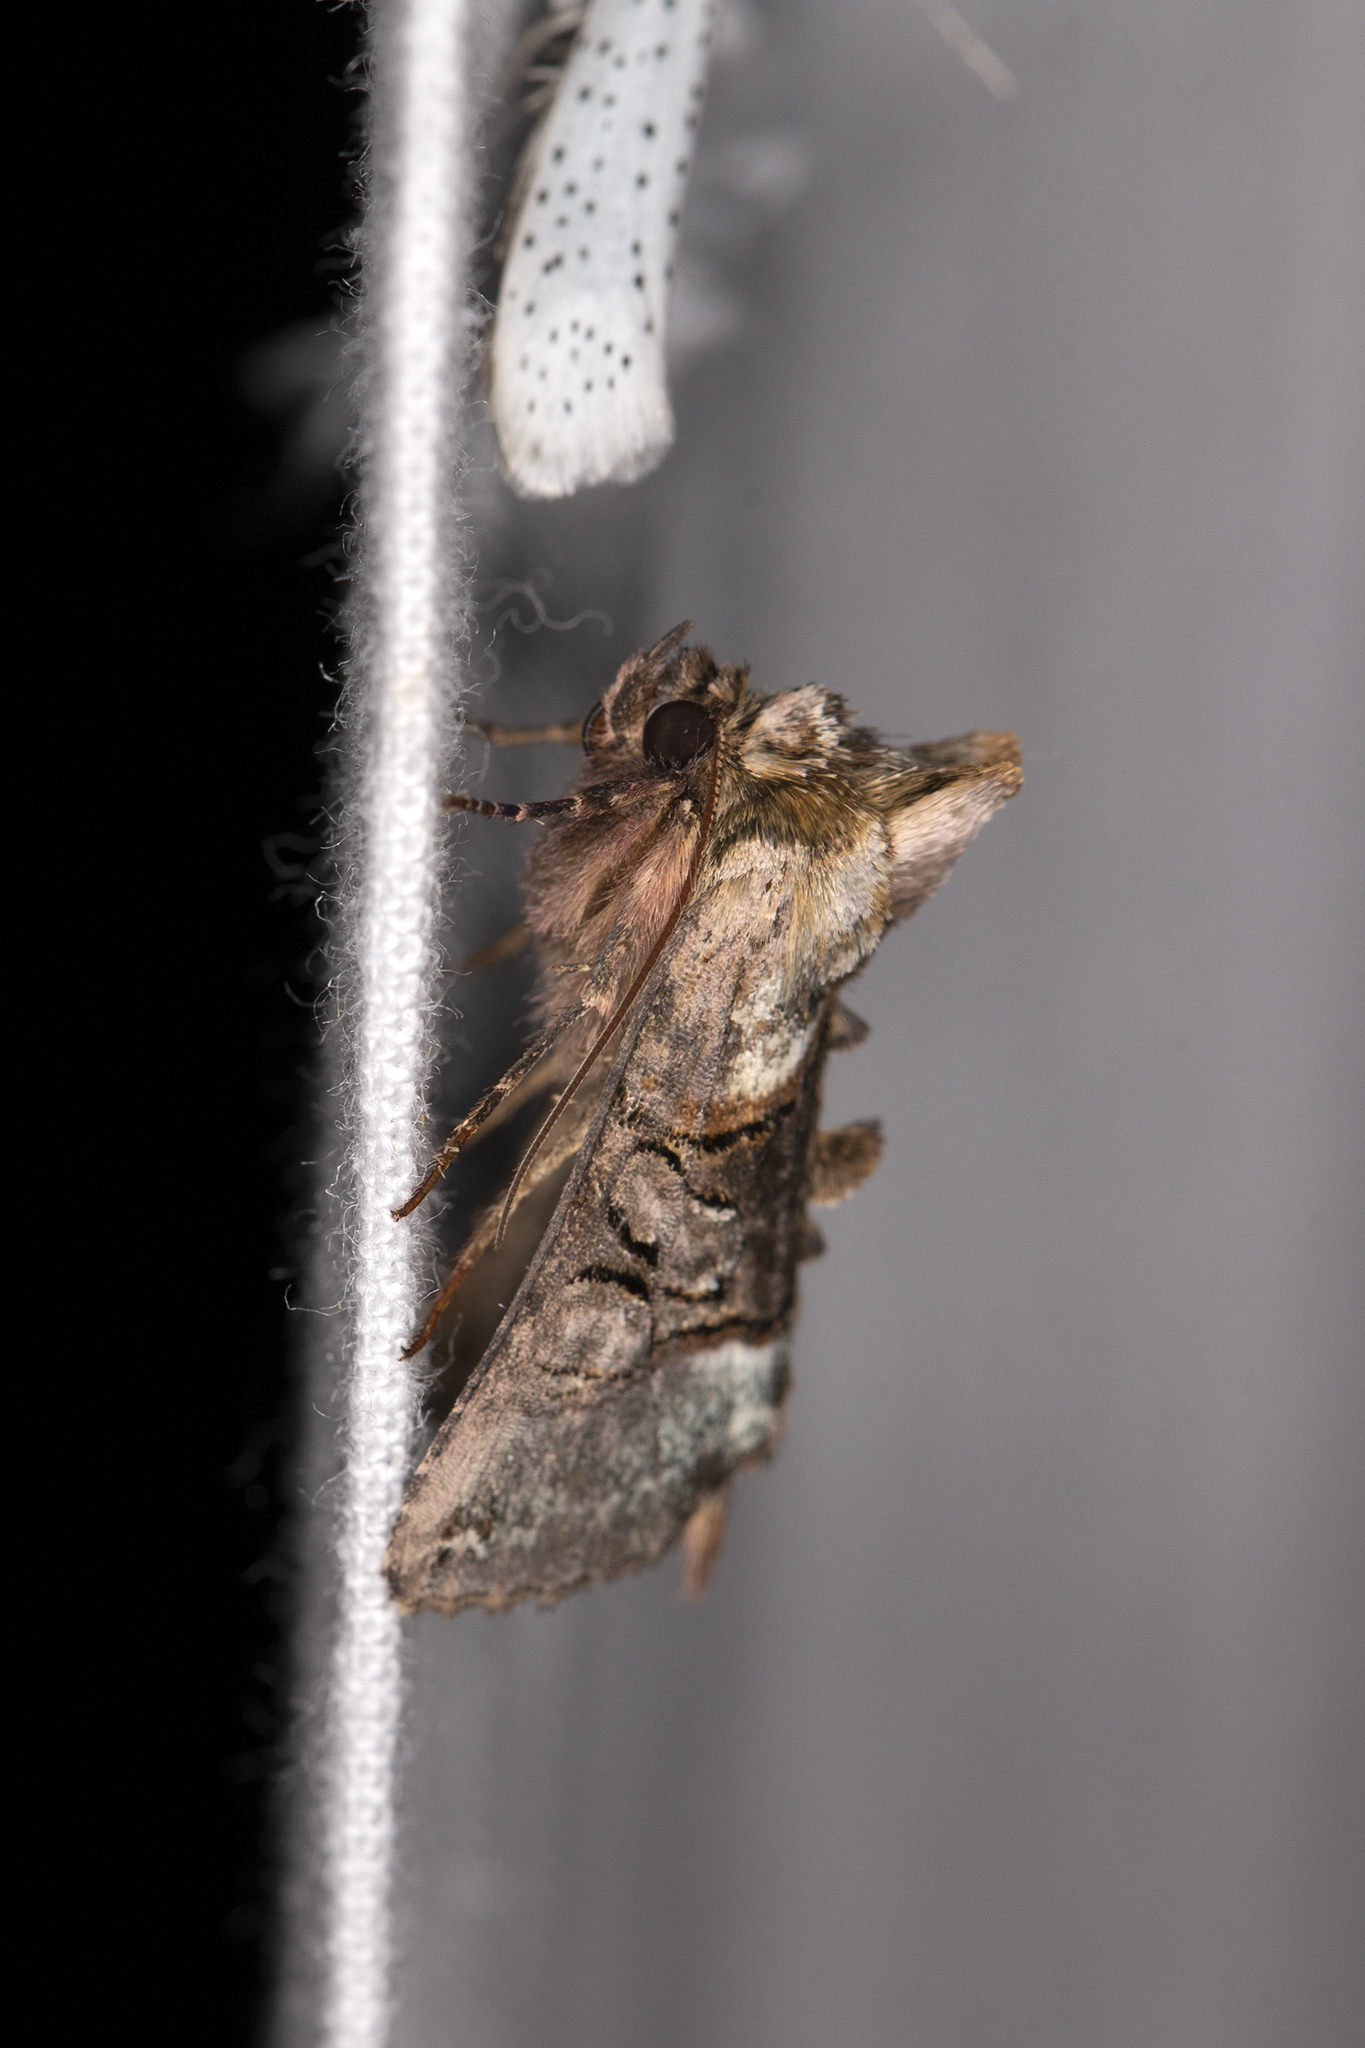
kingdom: Animalia
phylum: Arthropoda
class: Insecta
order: Lepidoptera
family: Noctuidae
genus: Abrostola
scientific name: Abrostola tripartita
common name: Spectacle
